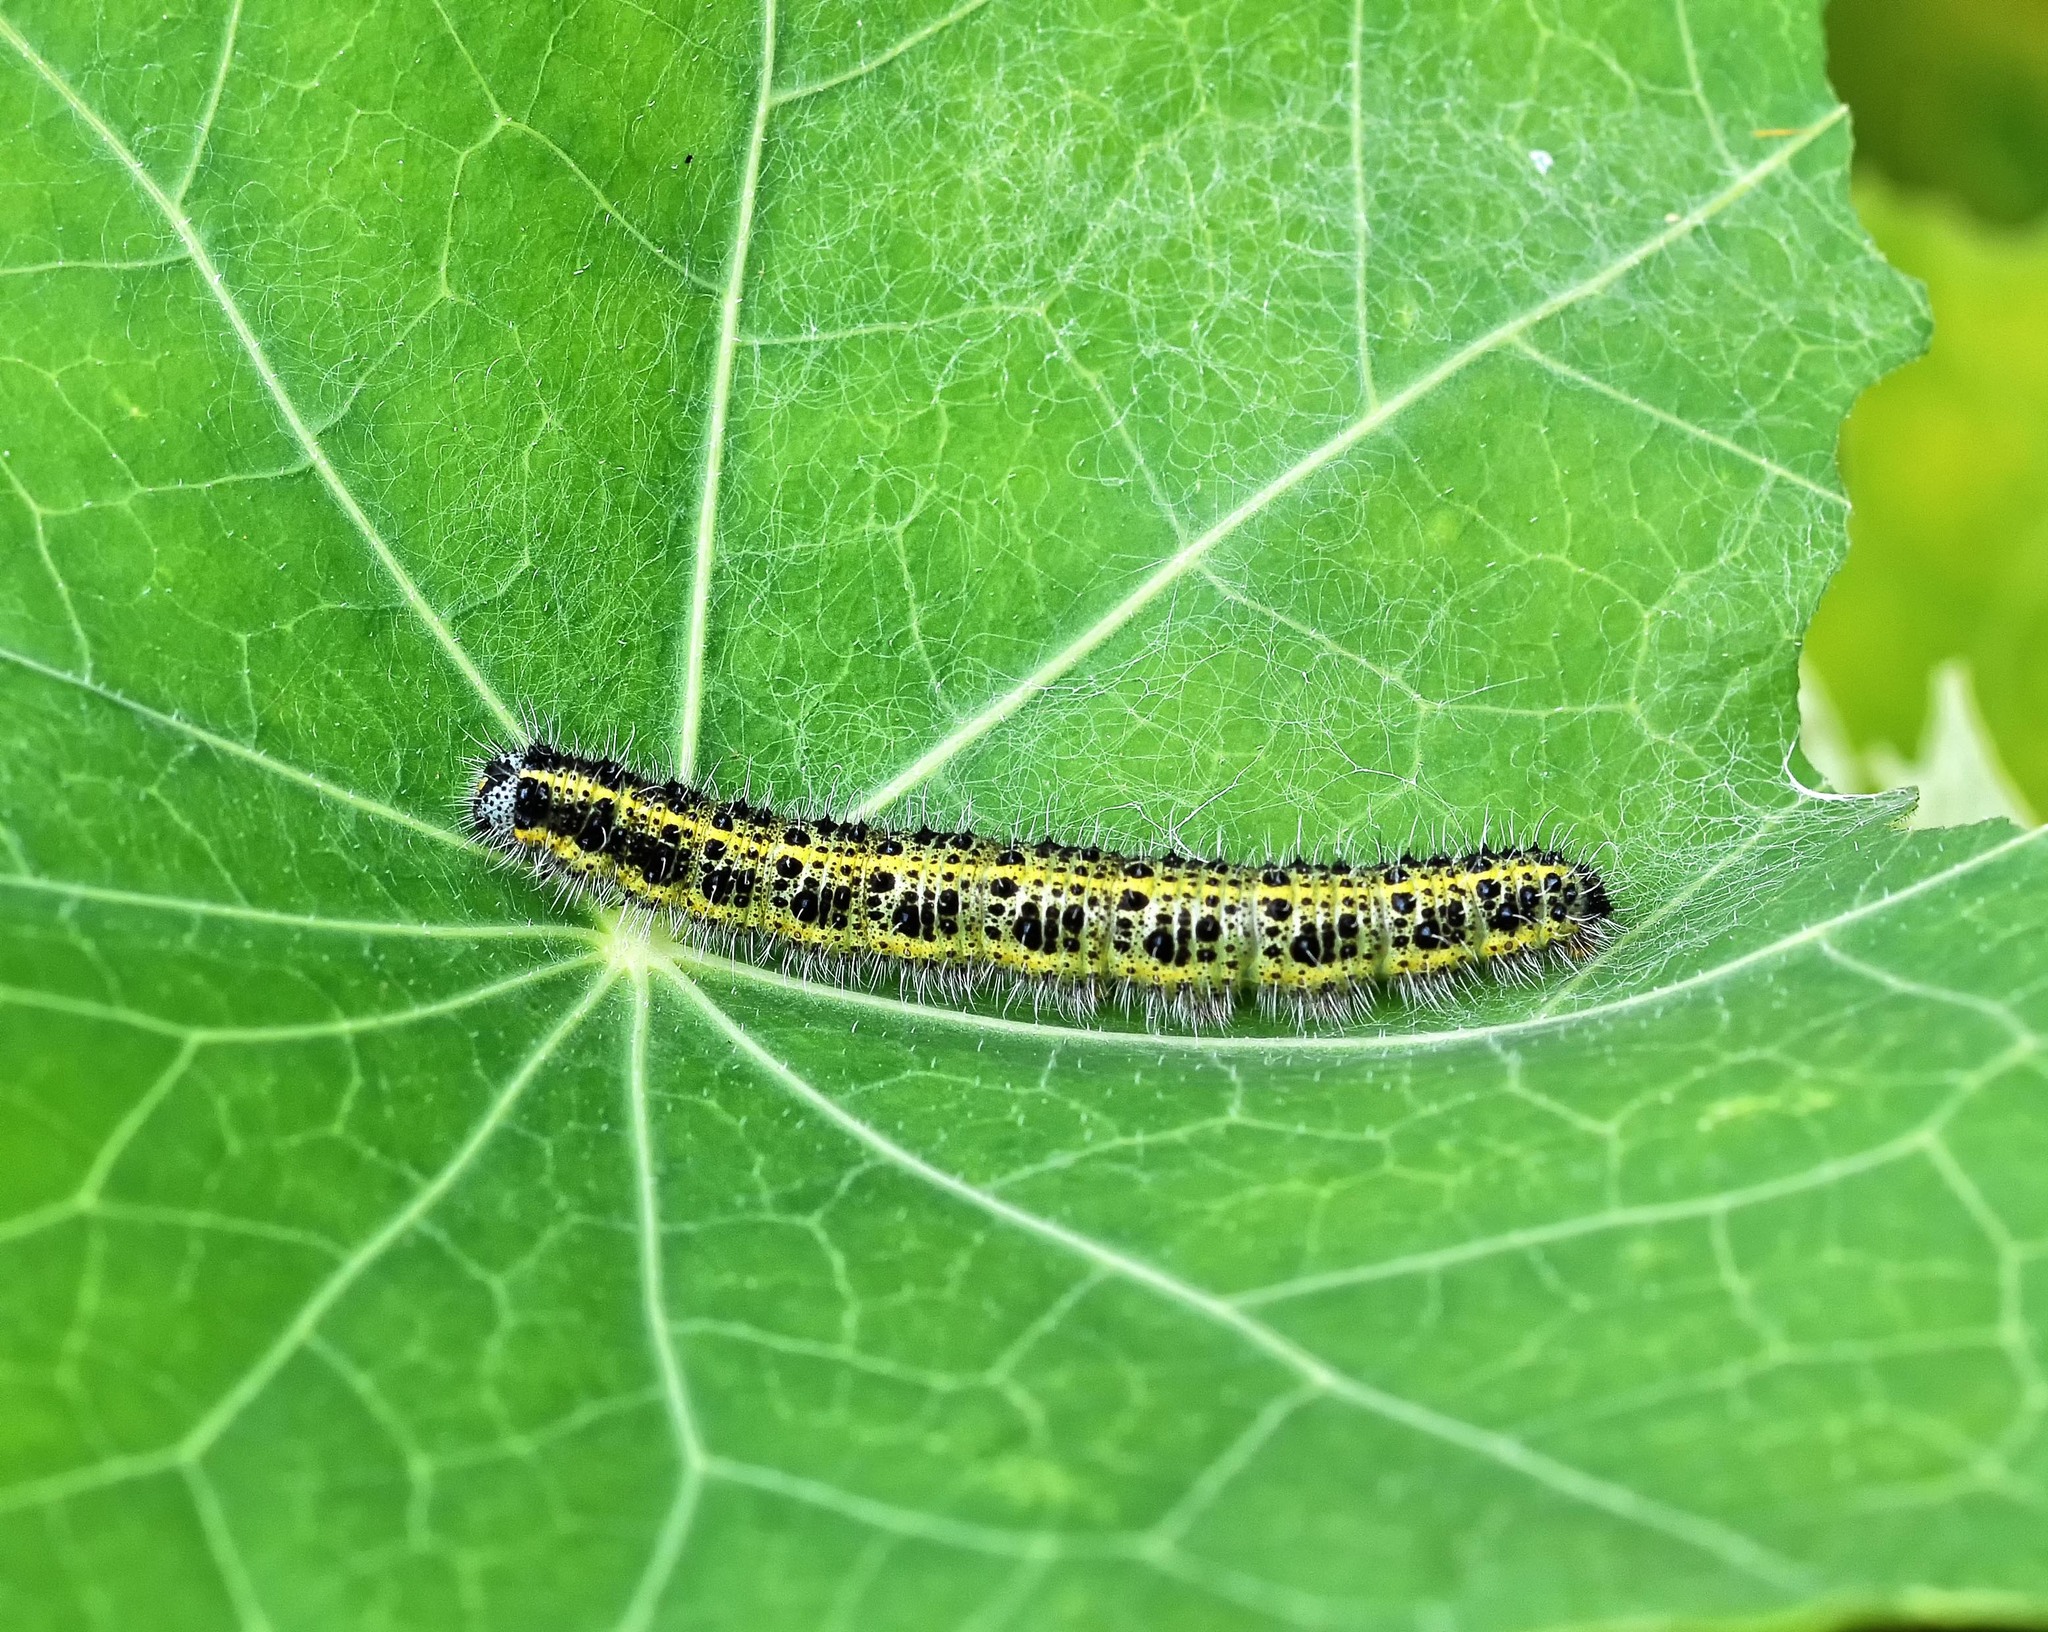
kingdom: Animalia
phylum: Arthropoda
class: Insecta
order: Lepidoptera
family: Pieridae
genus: Pieris
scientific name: Pieris brassicae
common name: Large white
